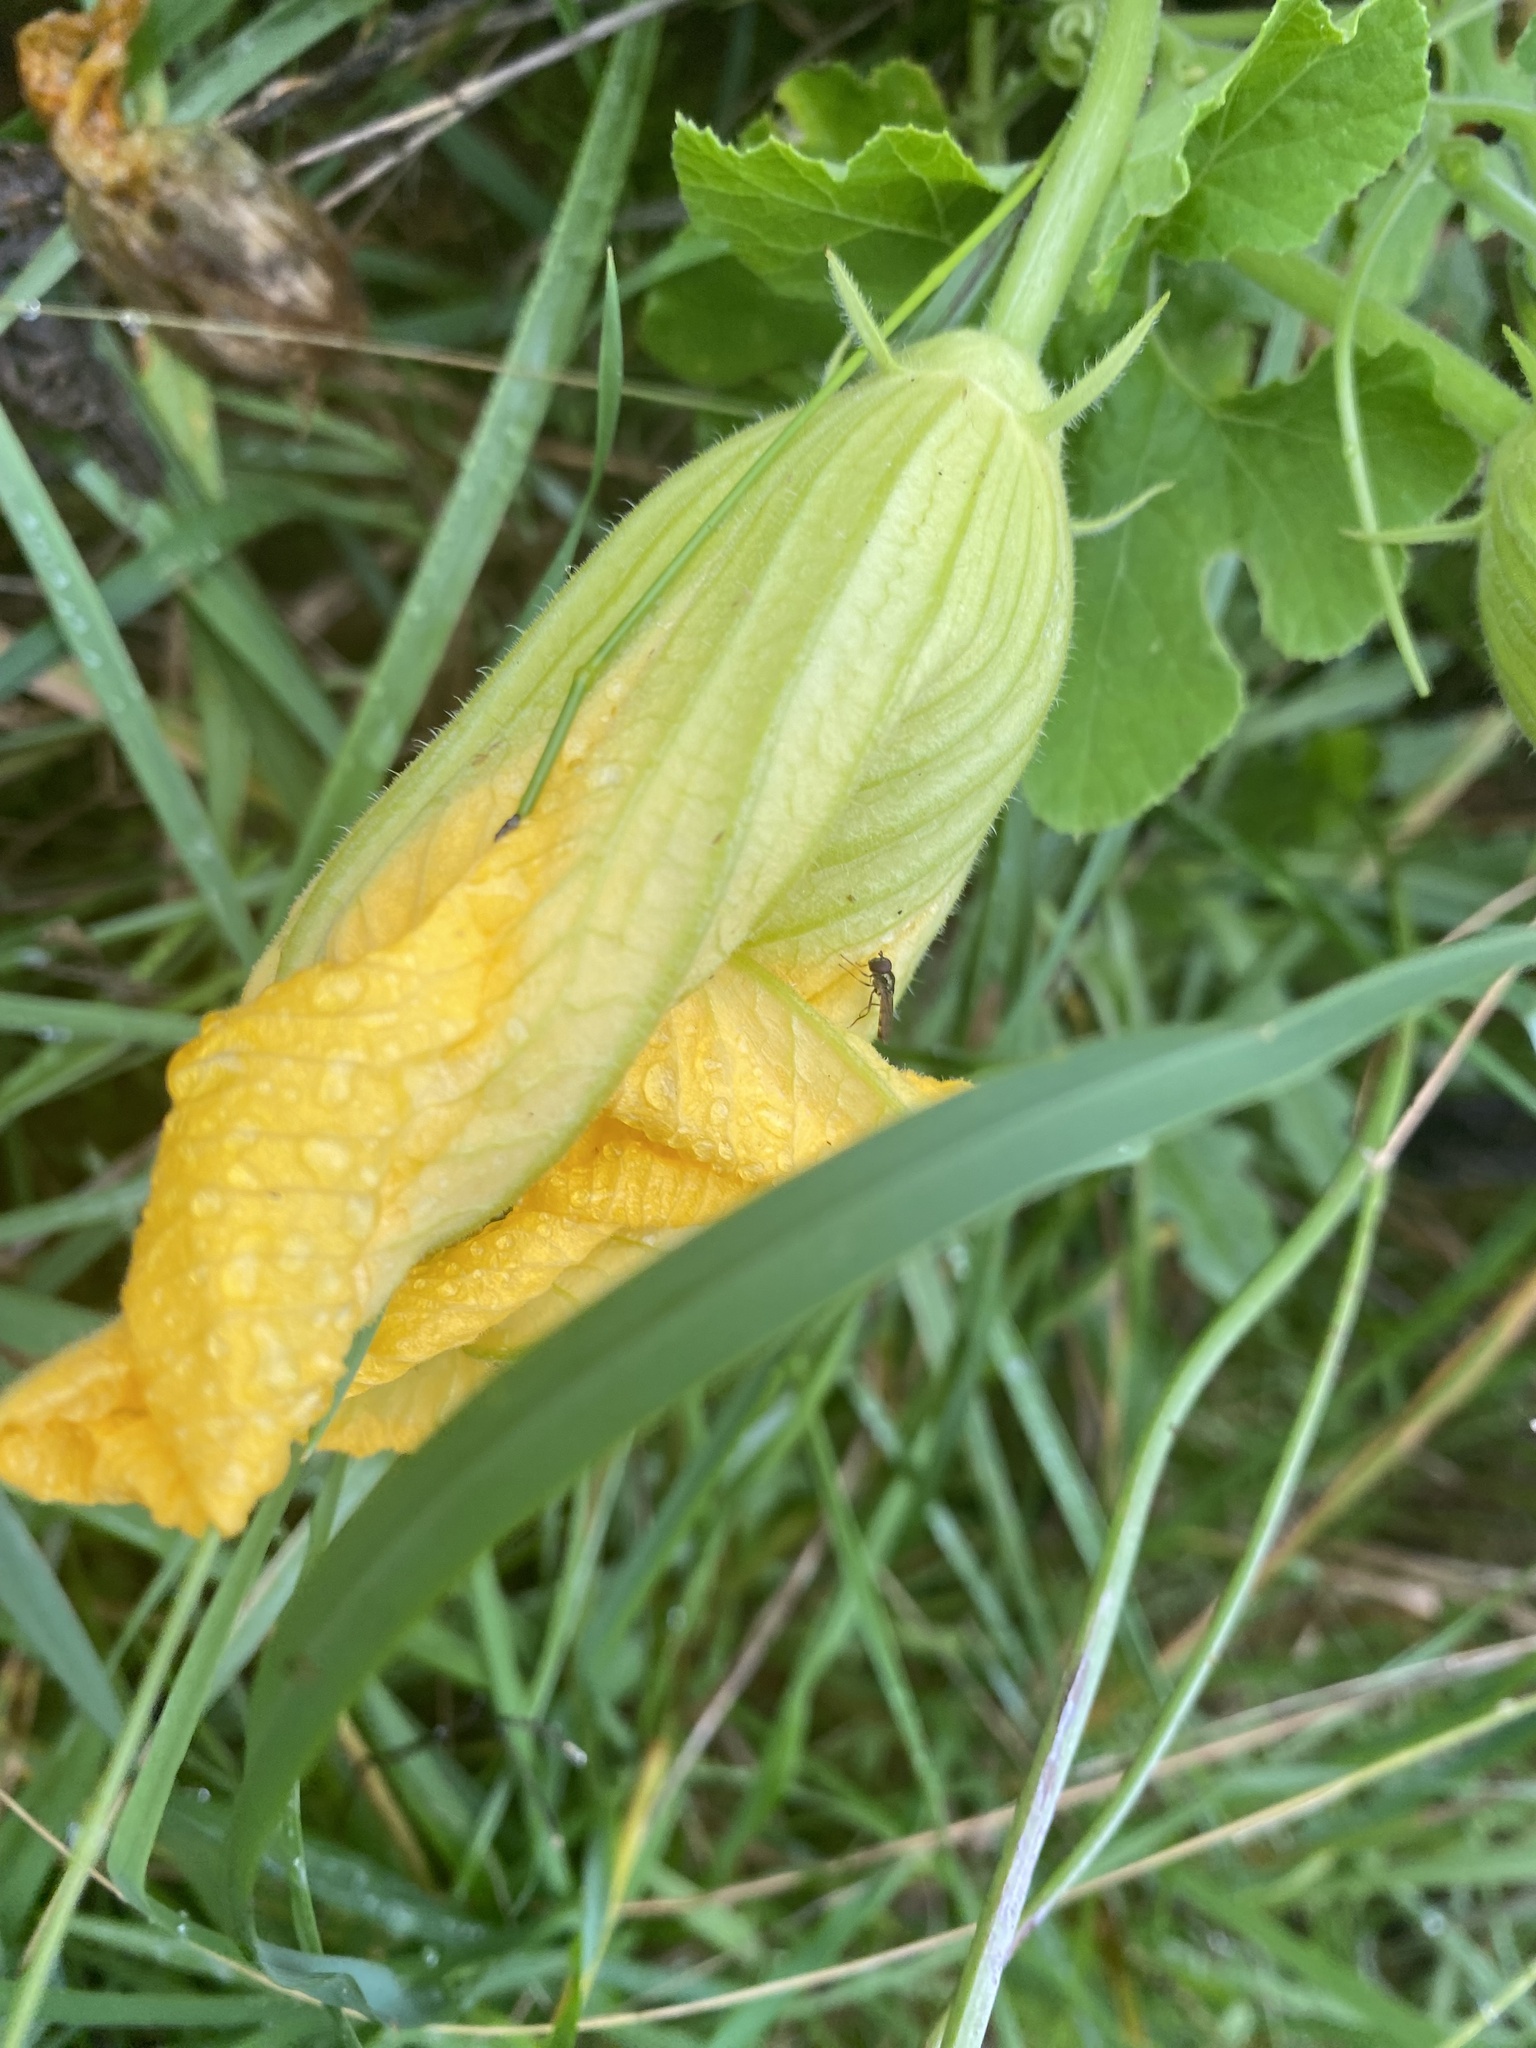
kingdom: Plantae
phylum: Tracheophyta
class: Magnoliopsida
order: Cucurbitales
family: Cucurbitaceae
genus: Cucurbita
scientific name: Cucurbita ficifolia
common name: Figleaf gourd
